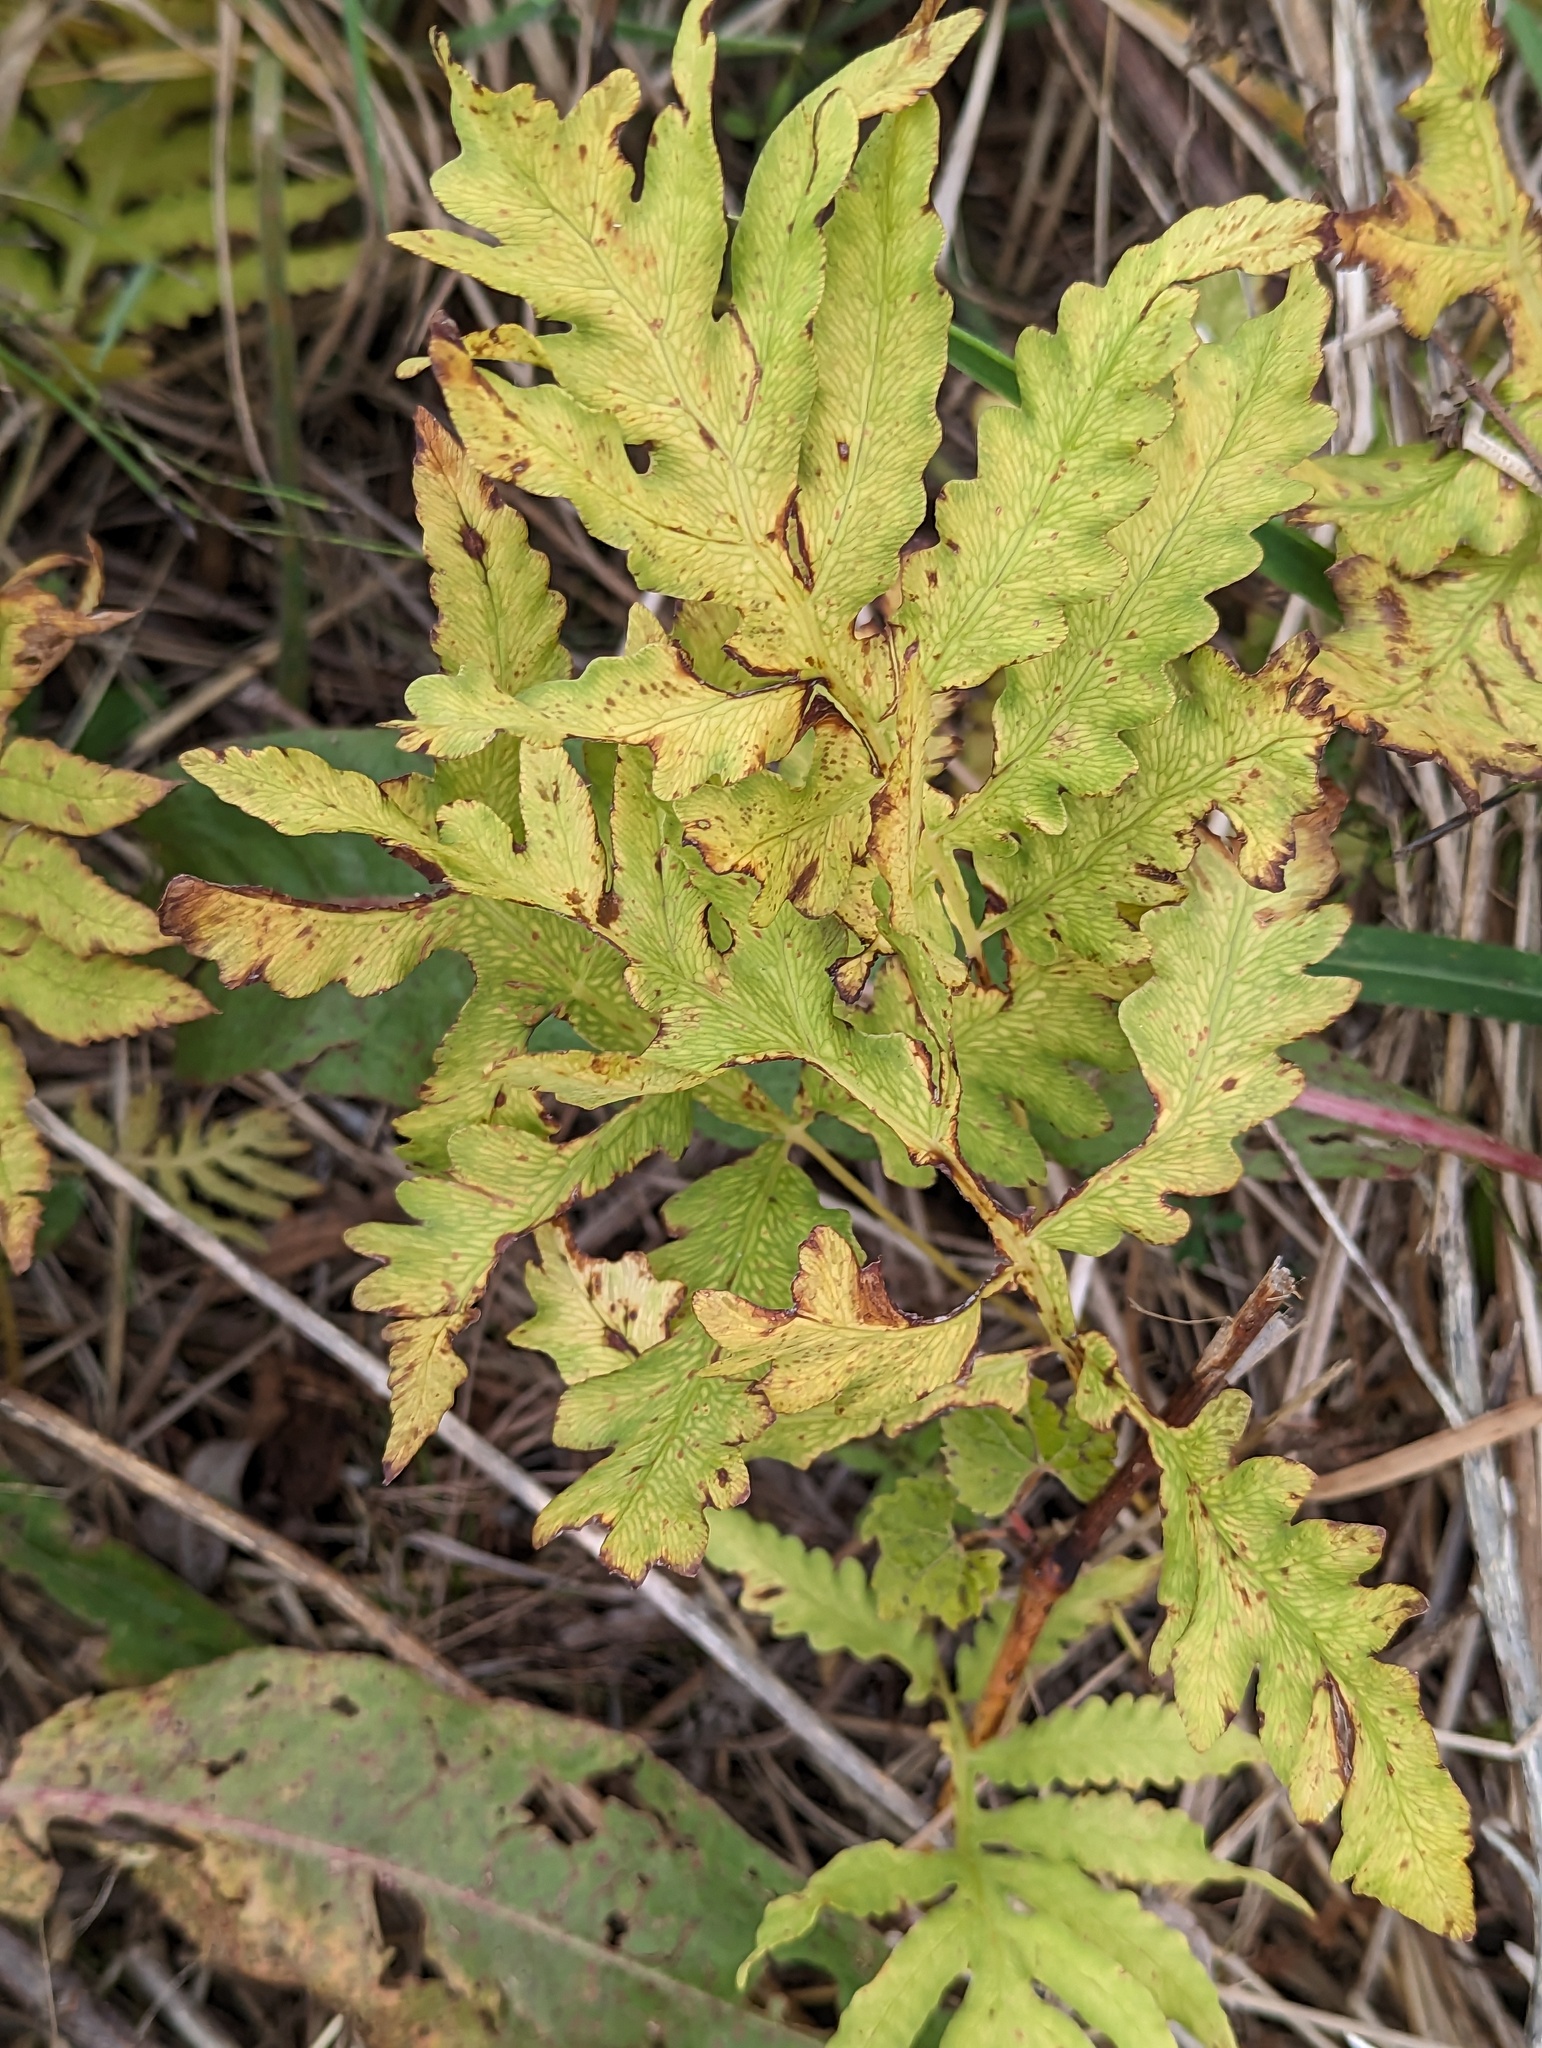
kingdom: Plantae
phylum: Tracheophyta
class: Polypodiopsida
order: Polypodiales
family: Onocleaceae
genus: Onoclea
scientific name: Onoclea sensibilis
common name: Sensitive fern
